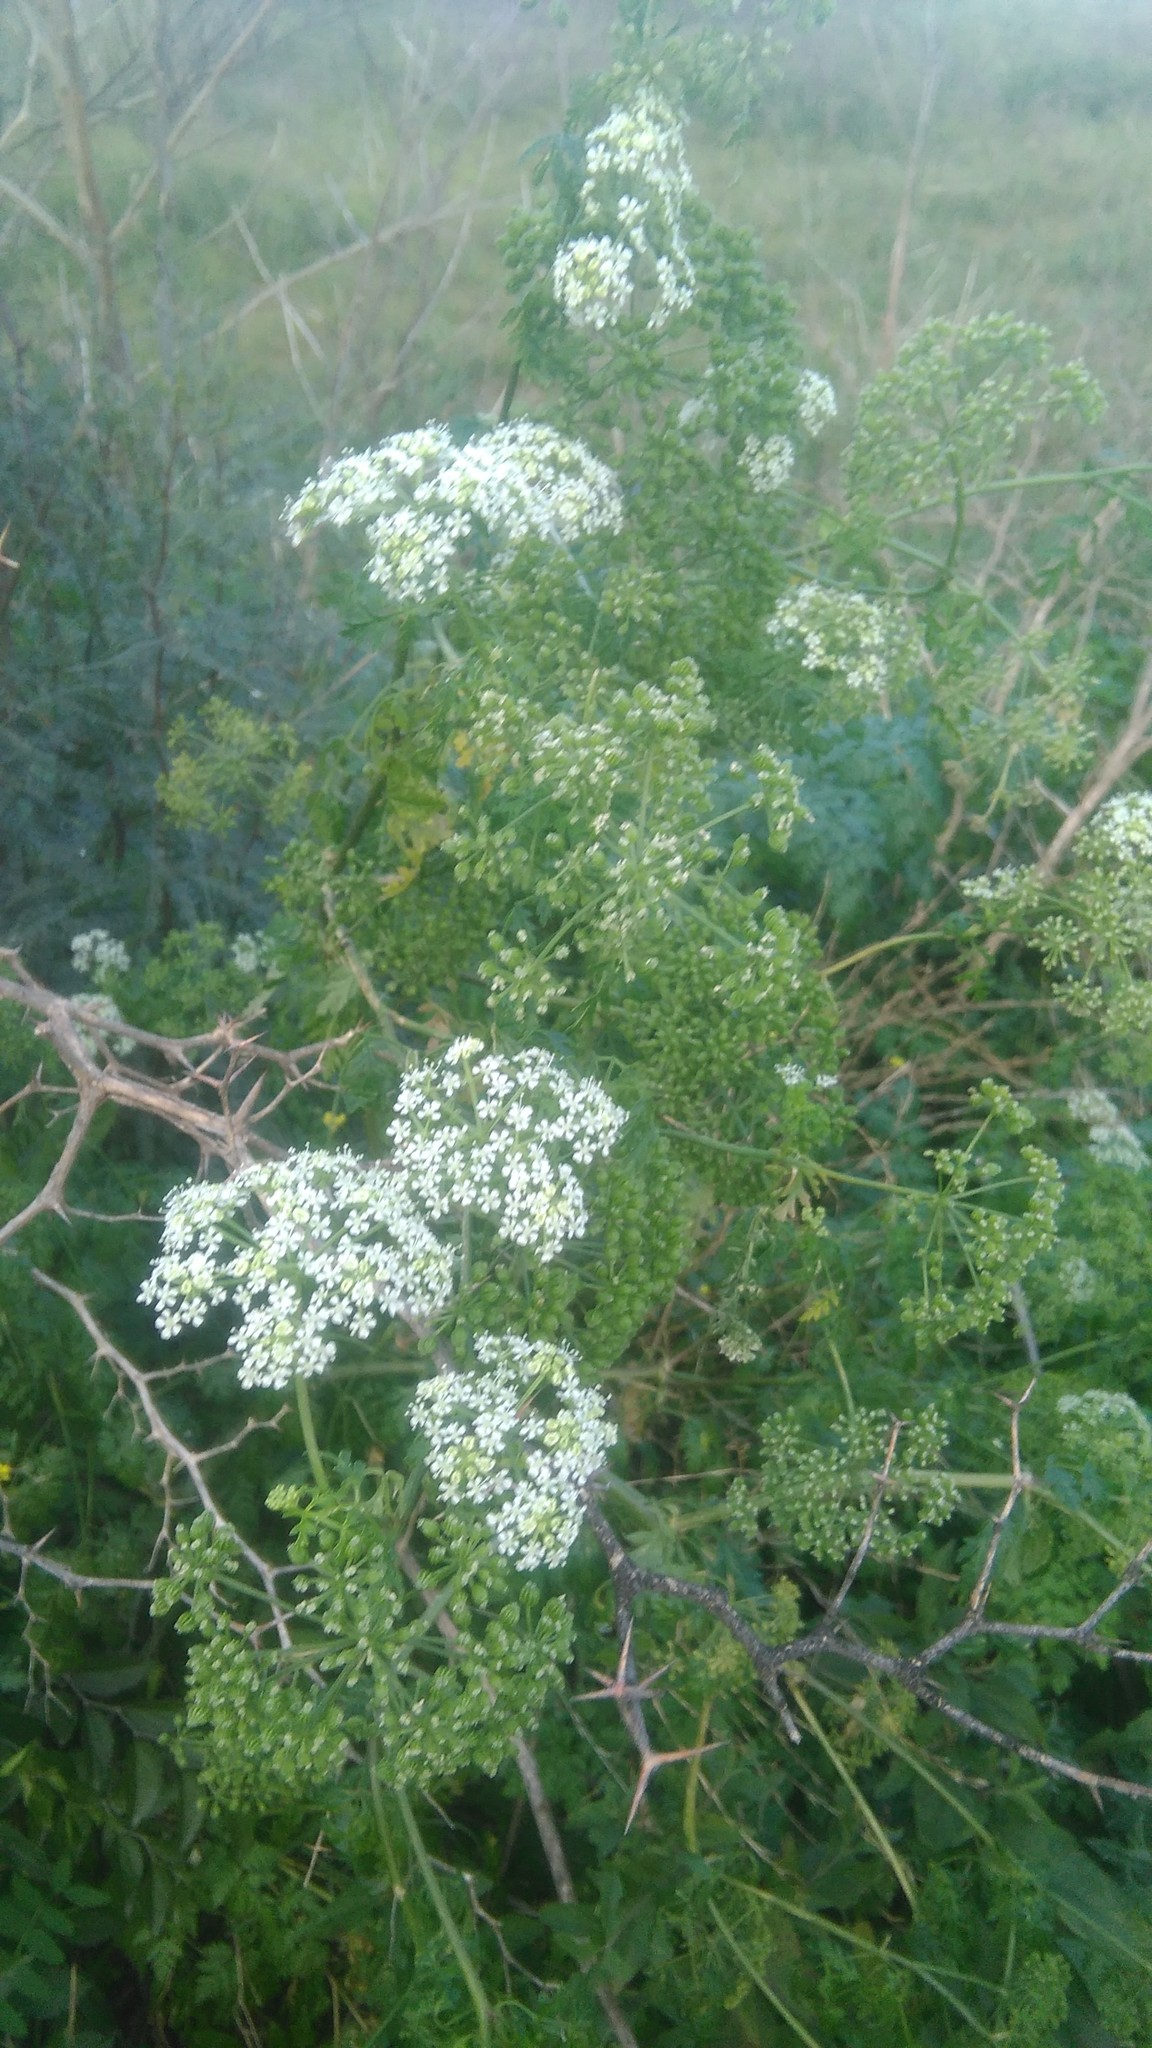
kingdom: Plantae
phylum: Tracheophyta
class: Magnoliopsida
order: Apiales
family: Apiaceae
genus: Conium
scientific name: Conium maculatum
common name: Hemlock
